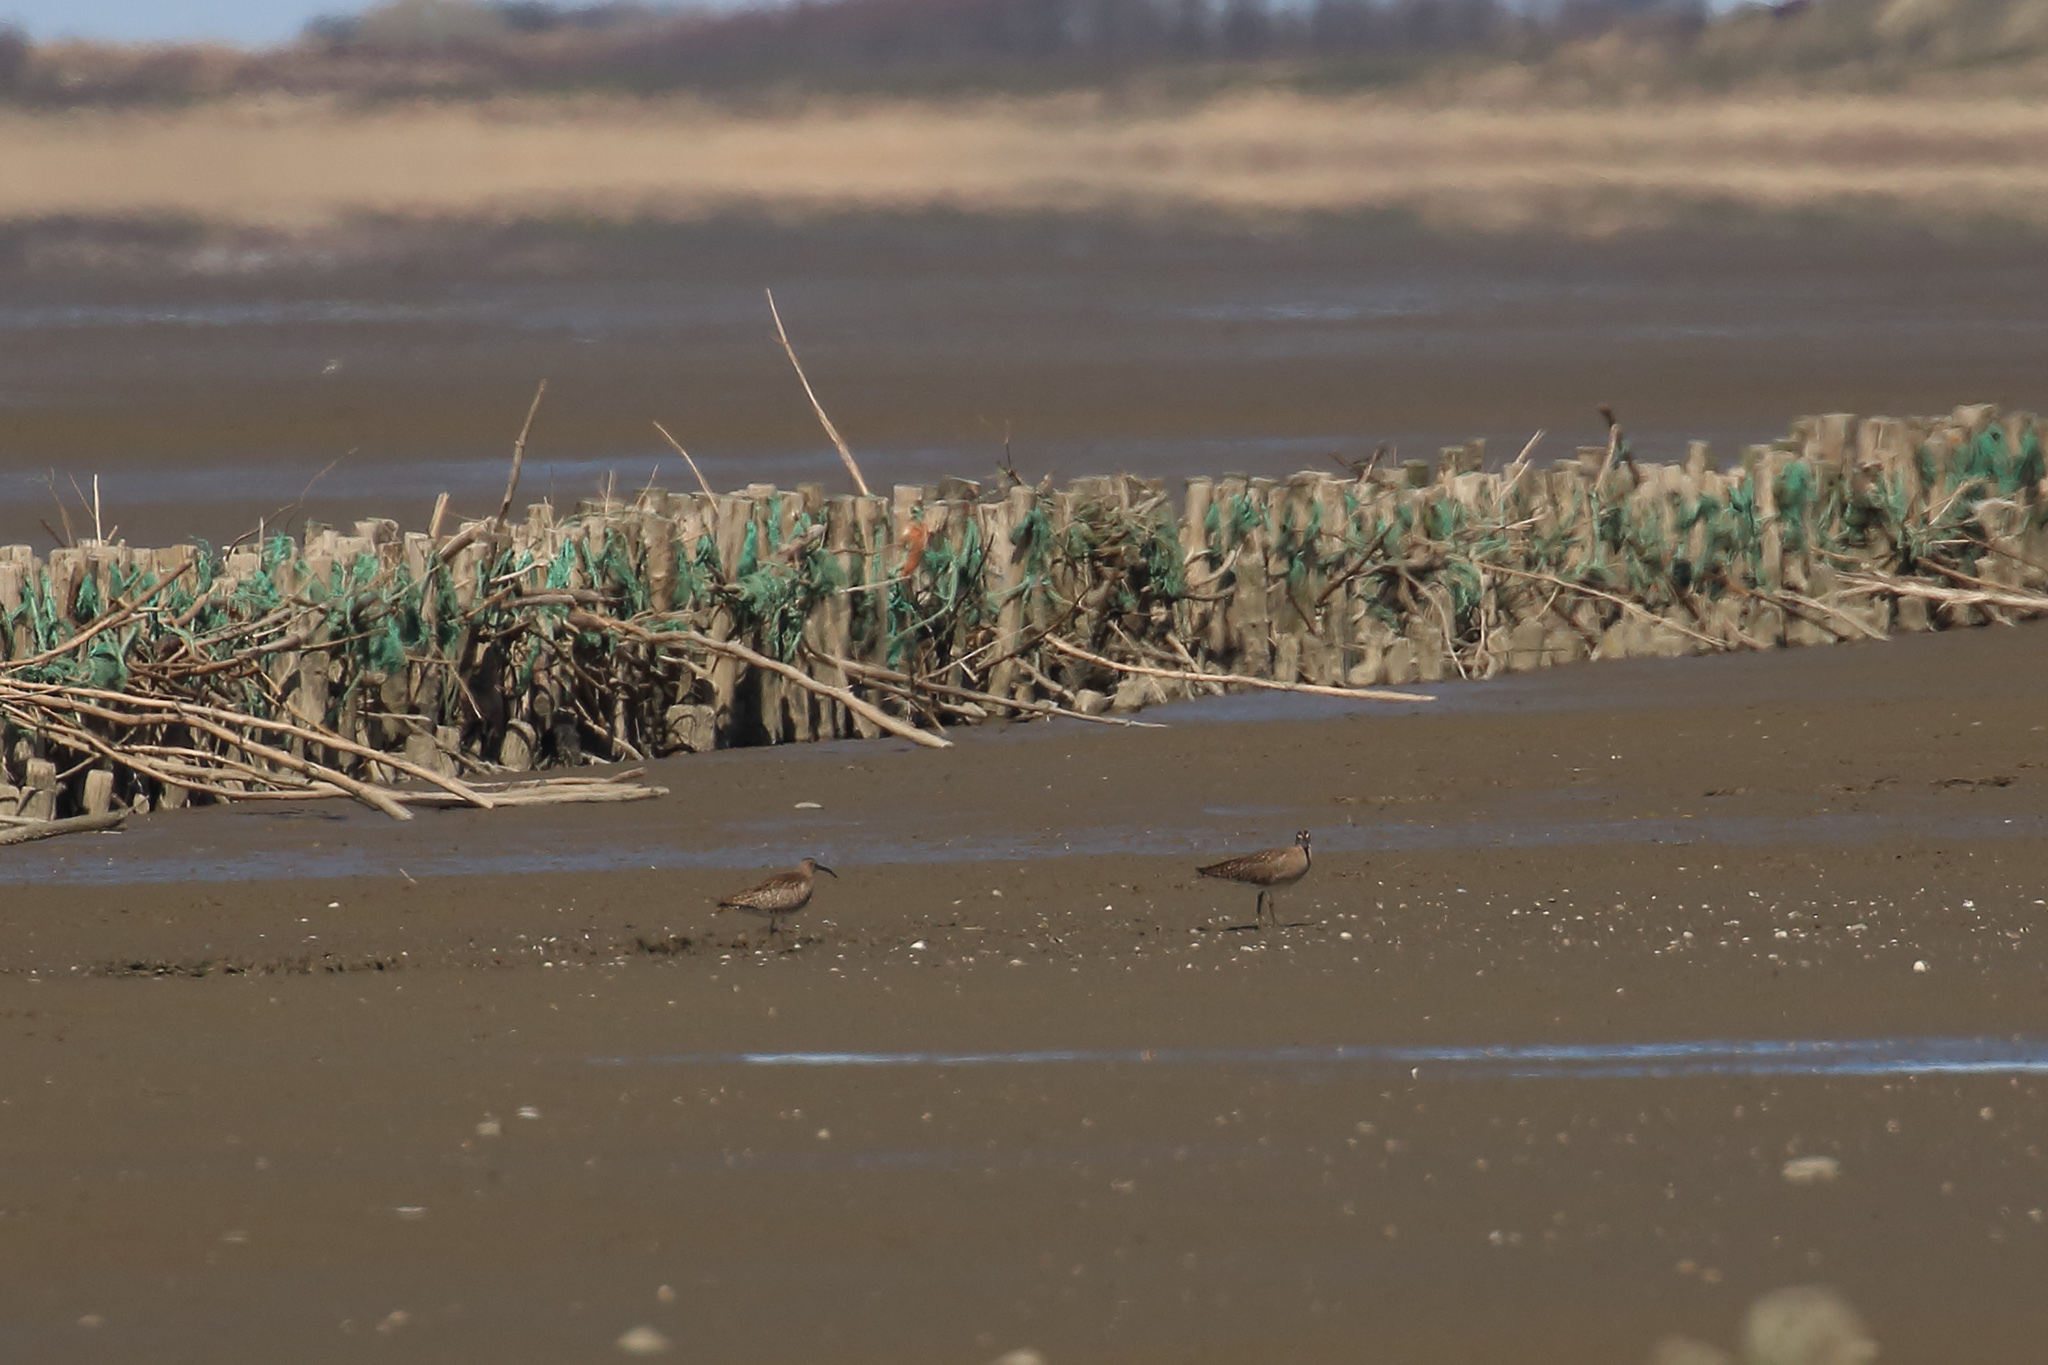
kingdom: Animalia
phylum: Chordata
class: Aves
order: Charadriiformes
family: Scolopacidae
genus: Numenius
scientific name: Numenius phaeopus
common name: Whimbrel
